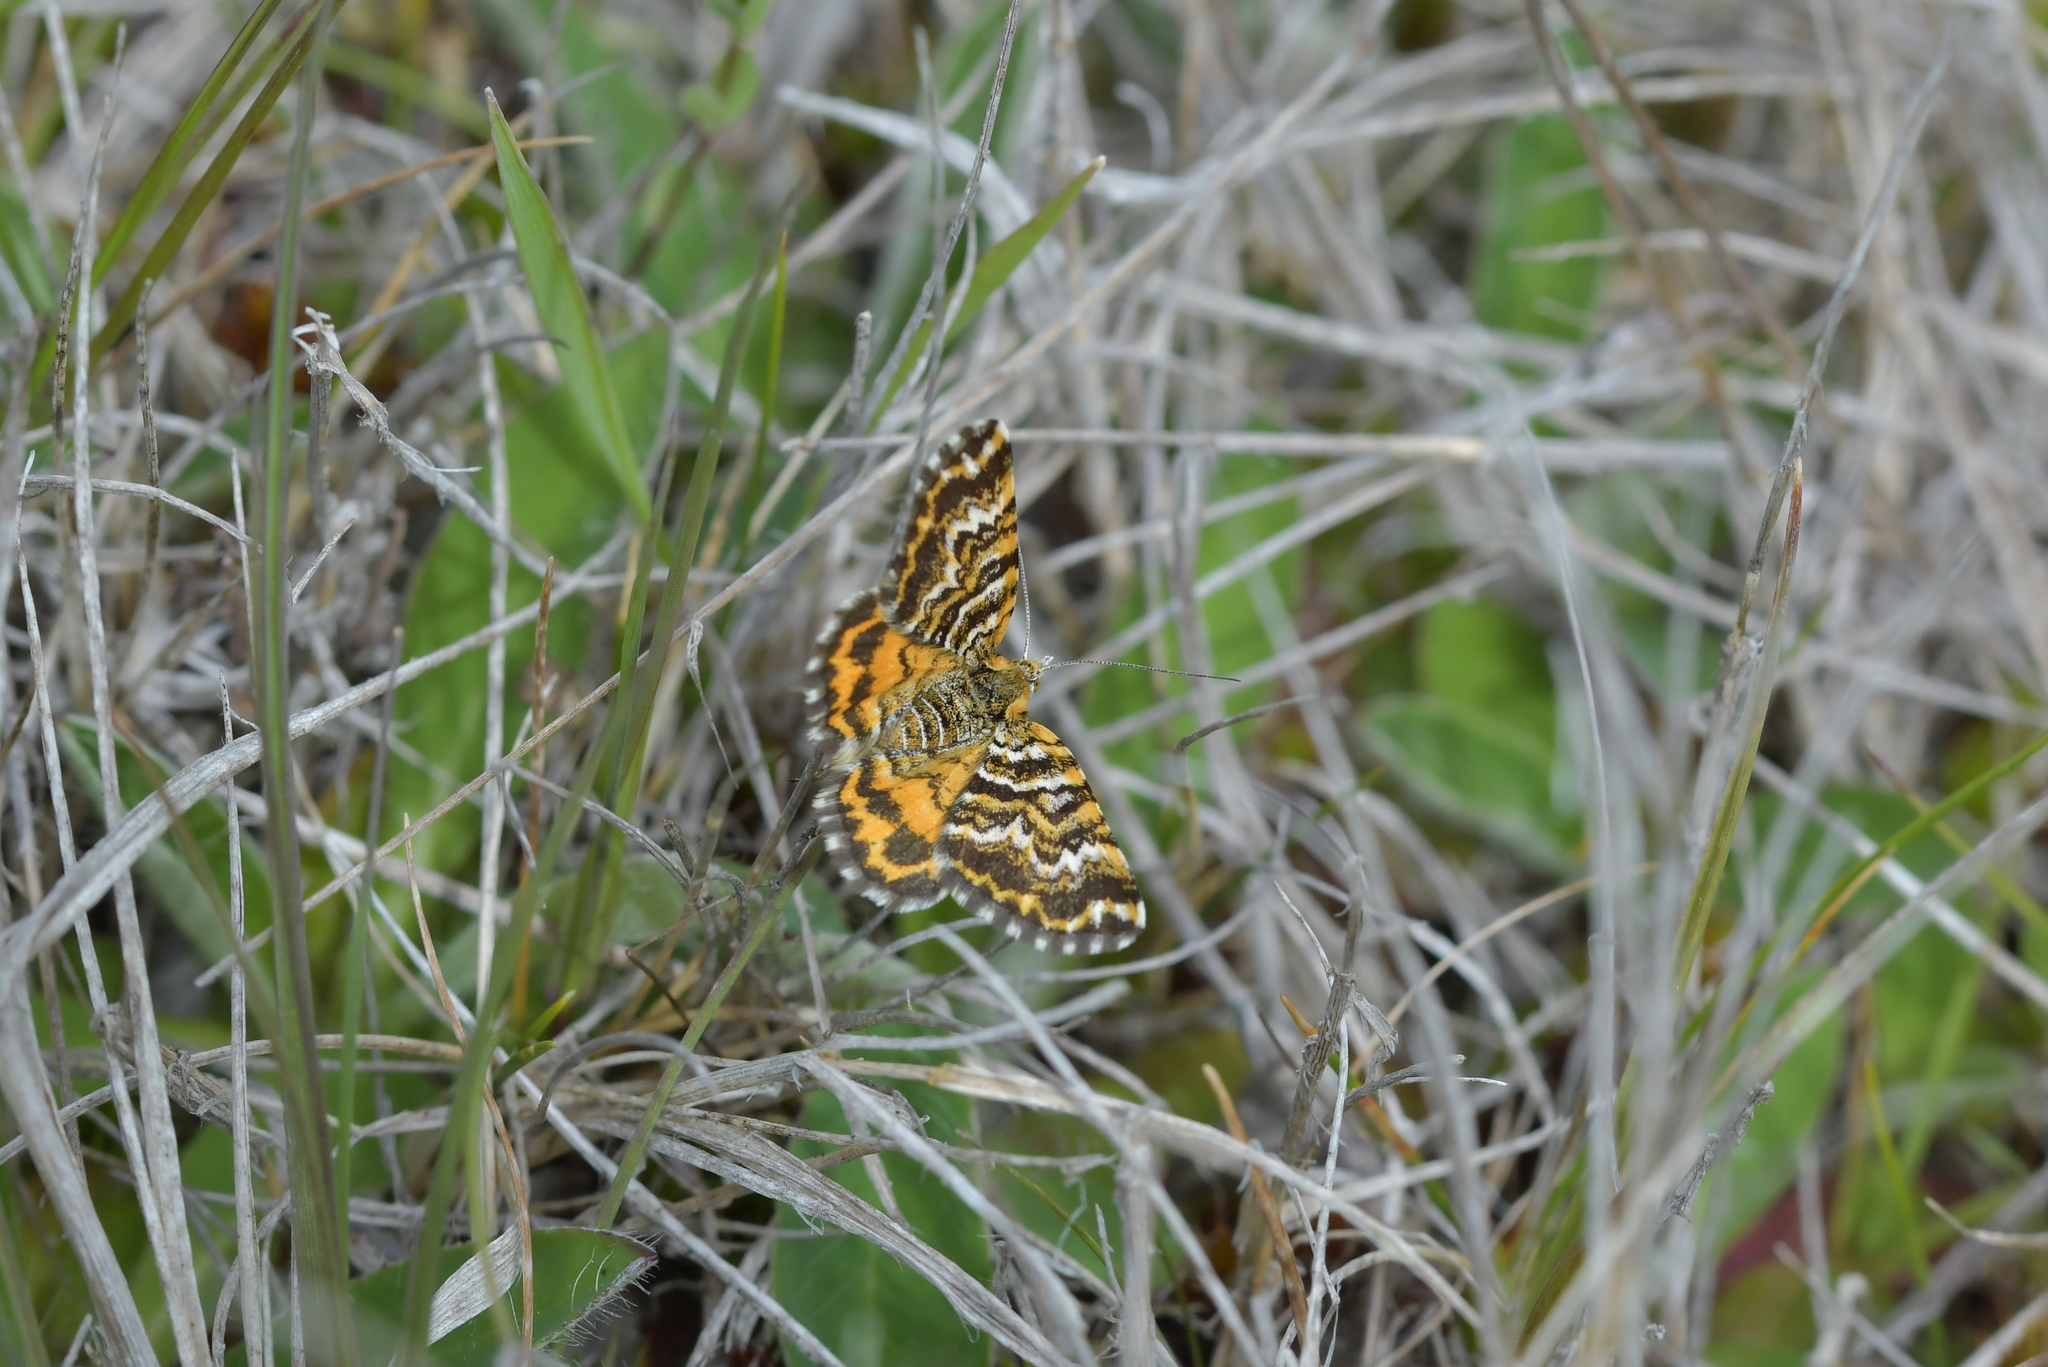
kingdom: Animalia
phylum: Arthropoda
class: Insecta
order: Lepidoptera
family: Geometridae
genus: Notoreas
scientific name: Notoreas
